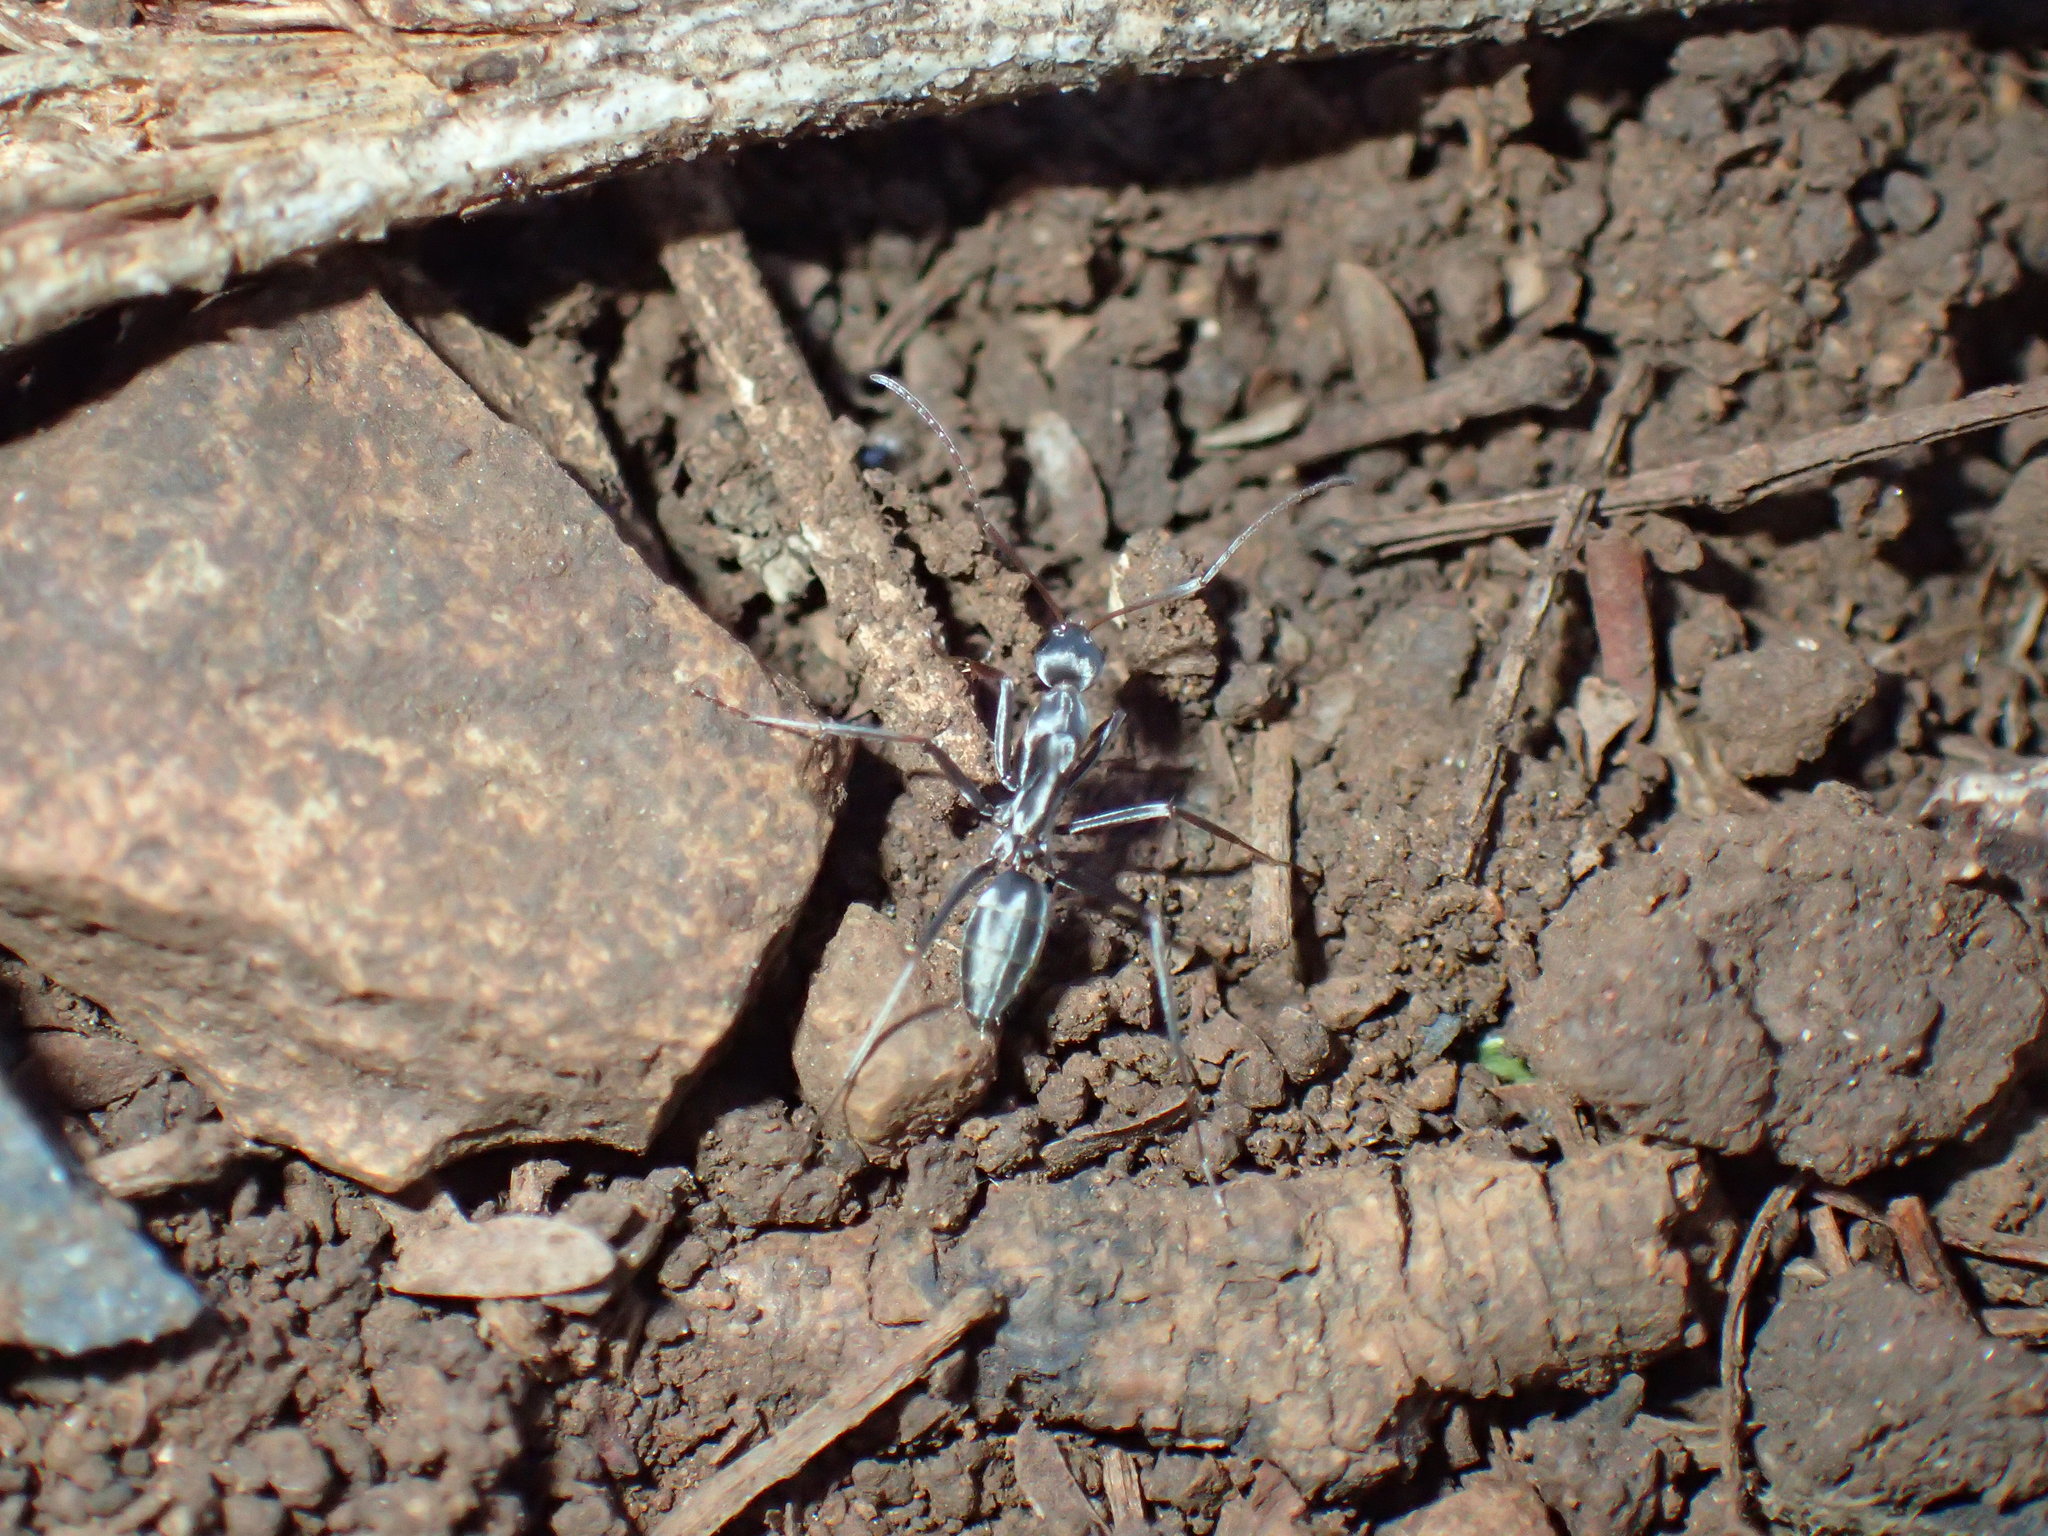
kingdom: Animalia
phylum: Arthropoda
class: Insecta
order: Hymenoptera
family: Formicidae
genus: Camponotus
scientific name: Camponotus vestitus
